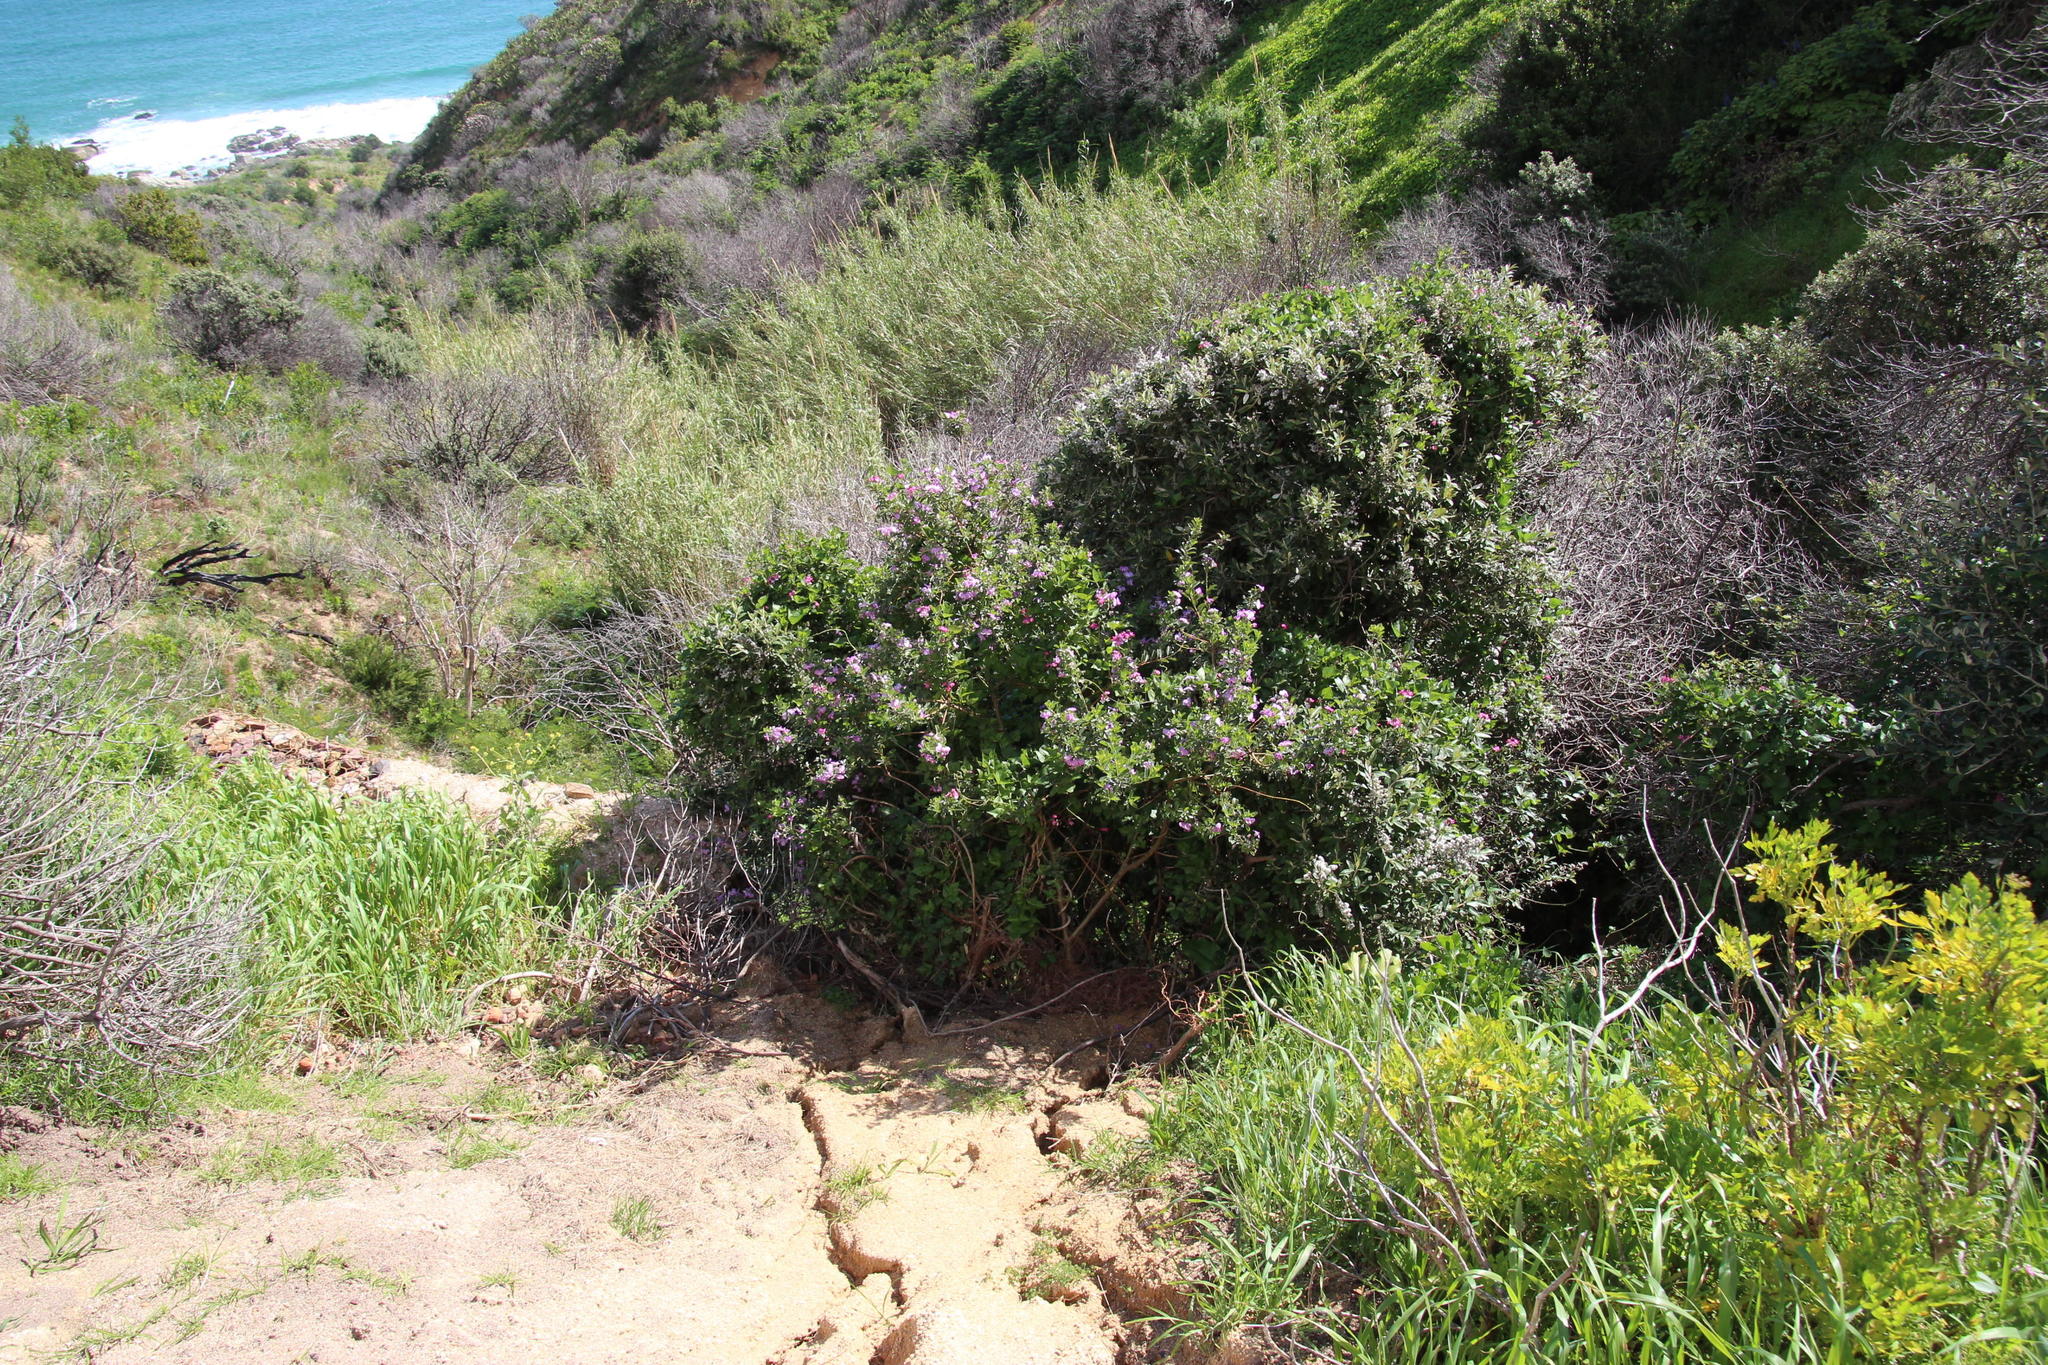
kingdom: Plantae
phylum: Tracheophyta
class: Magnoliopsida
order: Fabales
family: Fabaceae
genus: Podalyria
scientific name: Podalyria calyptrata
